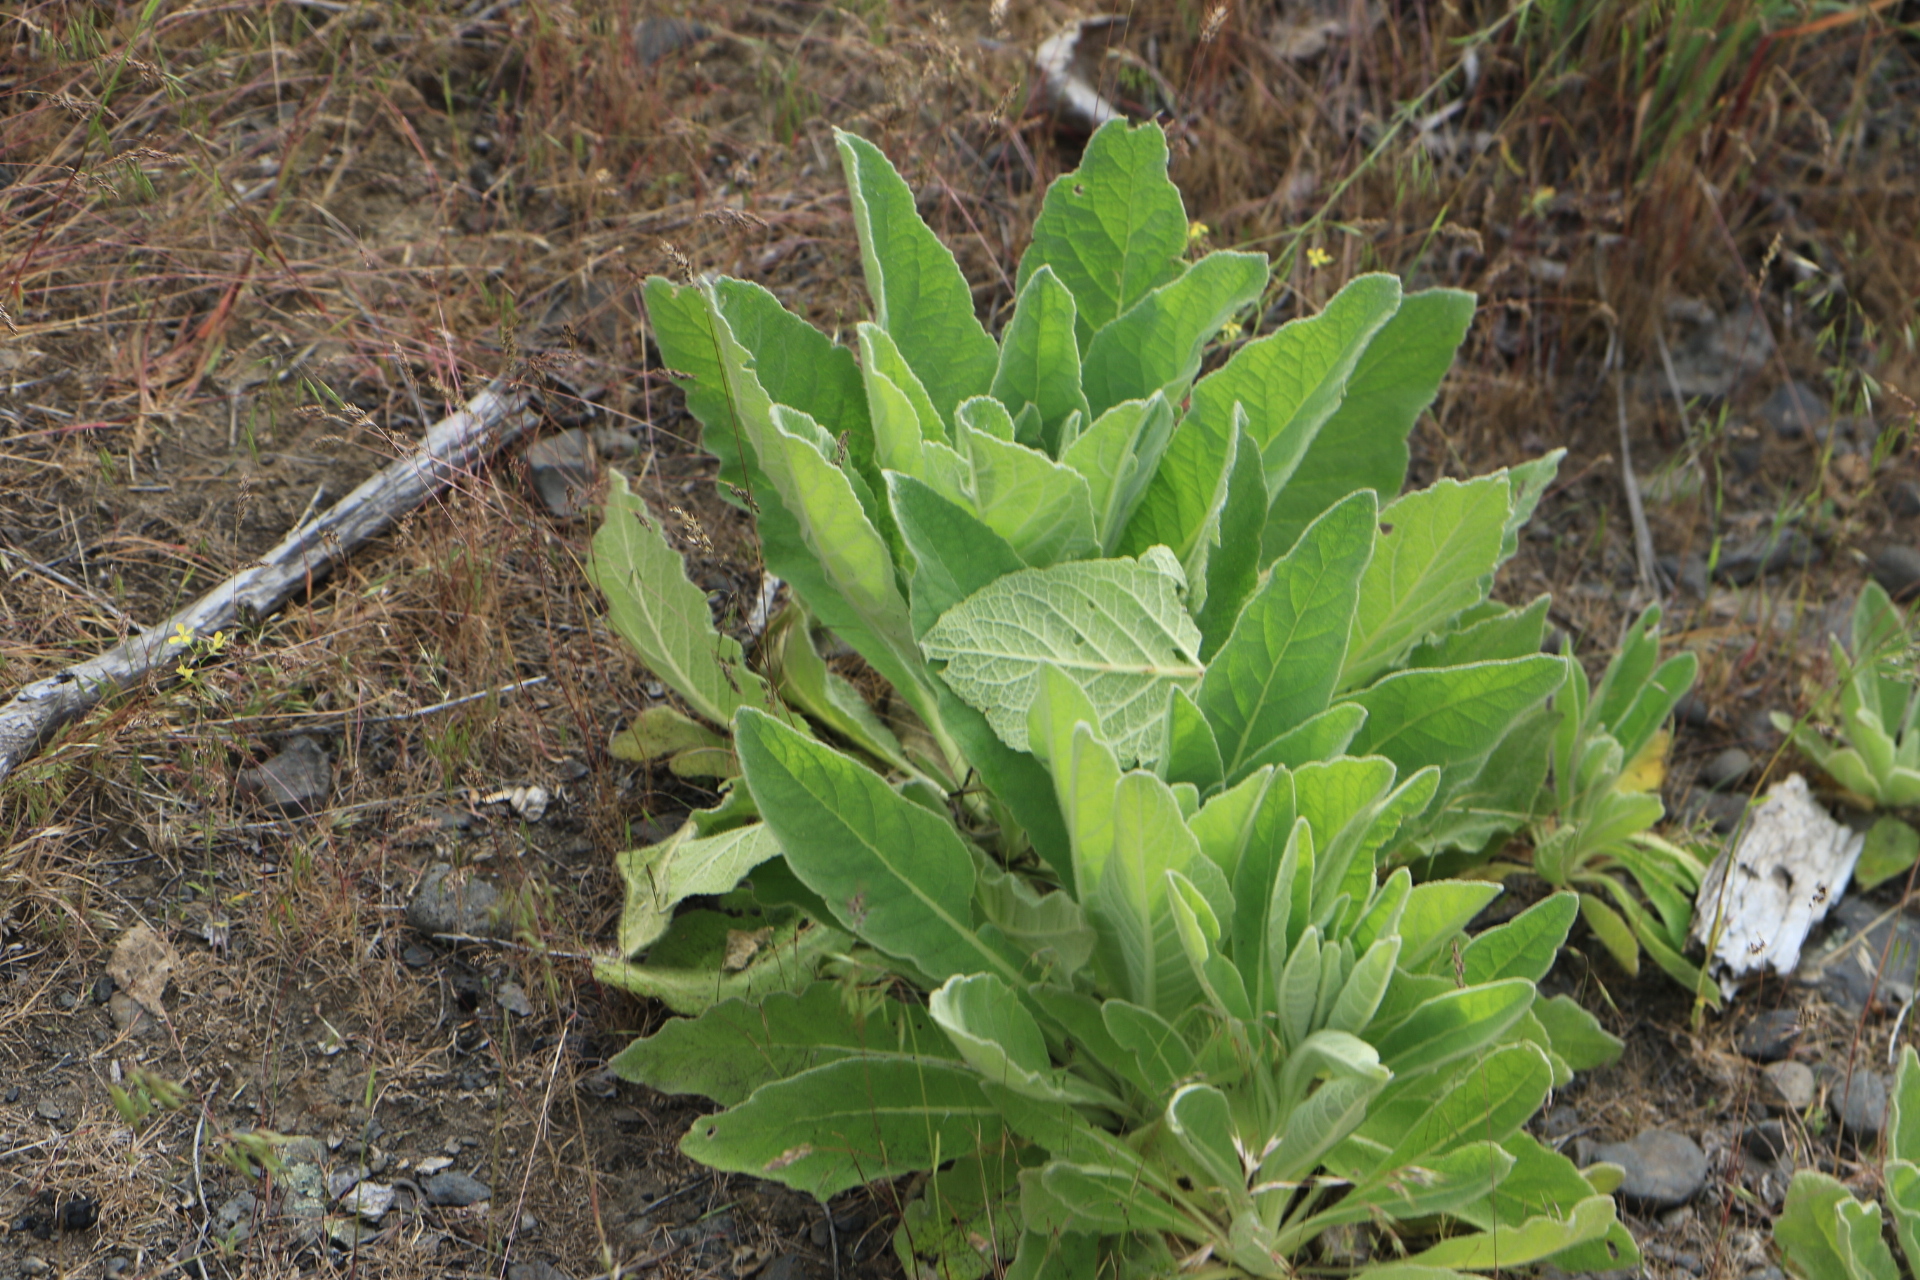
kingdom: Plantae
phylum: Tracheophyta
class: Magnoliopsida
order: Lamiales
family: Scrophulariaceae
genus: Verbascum
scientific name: Verbascum thapsus
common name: Common mullein
